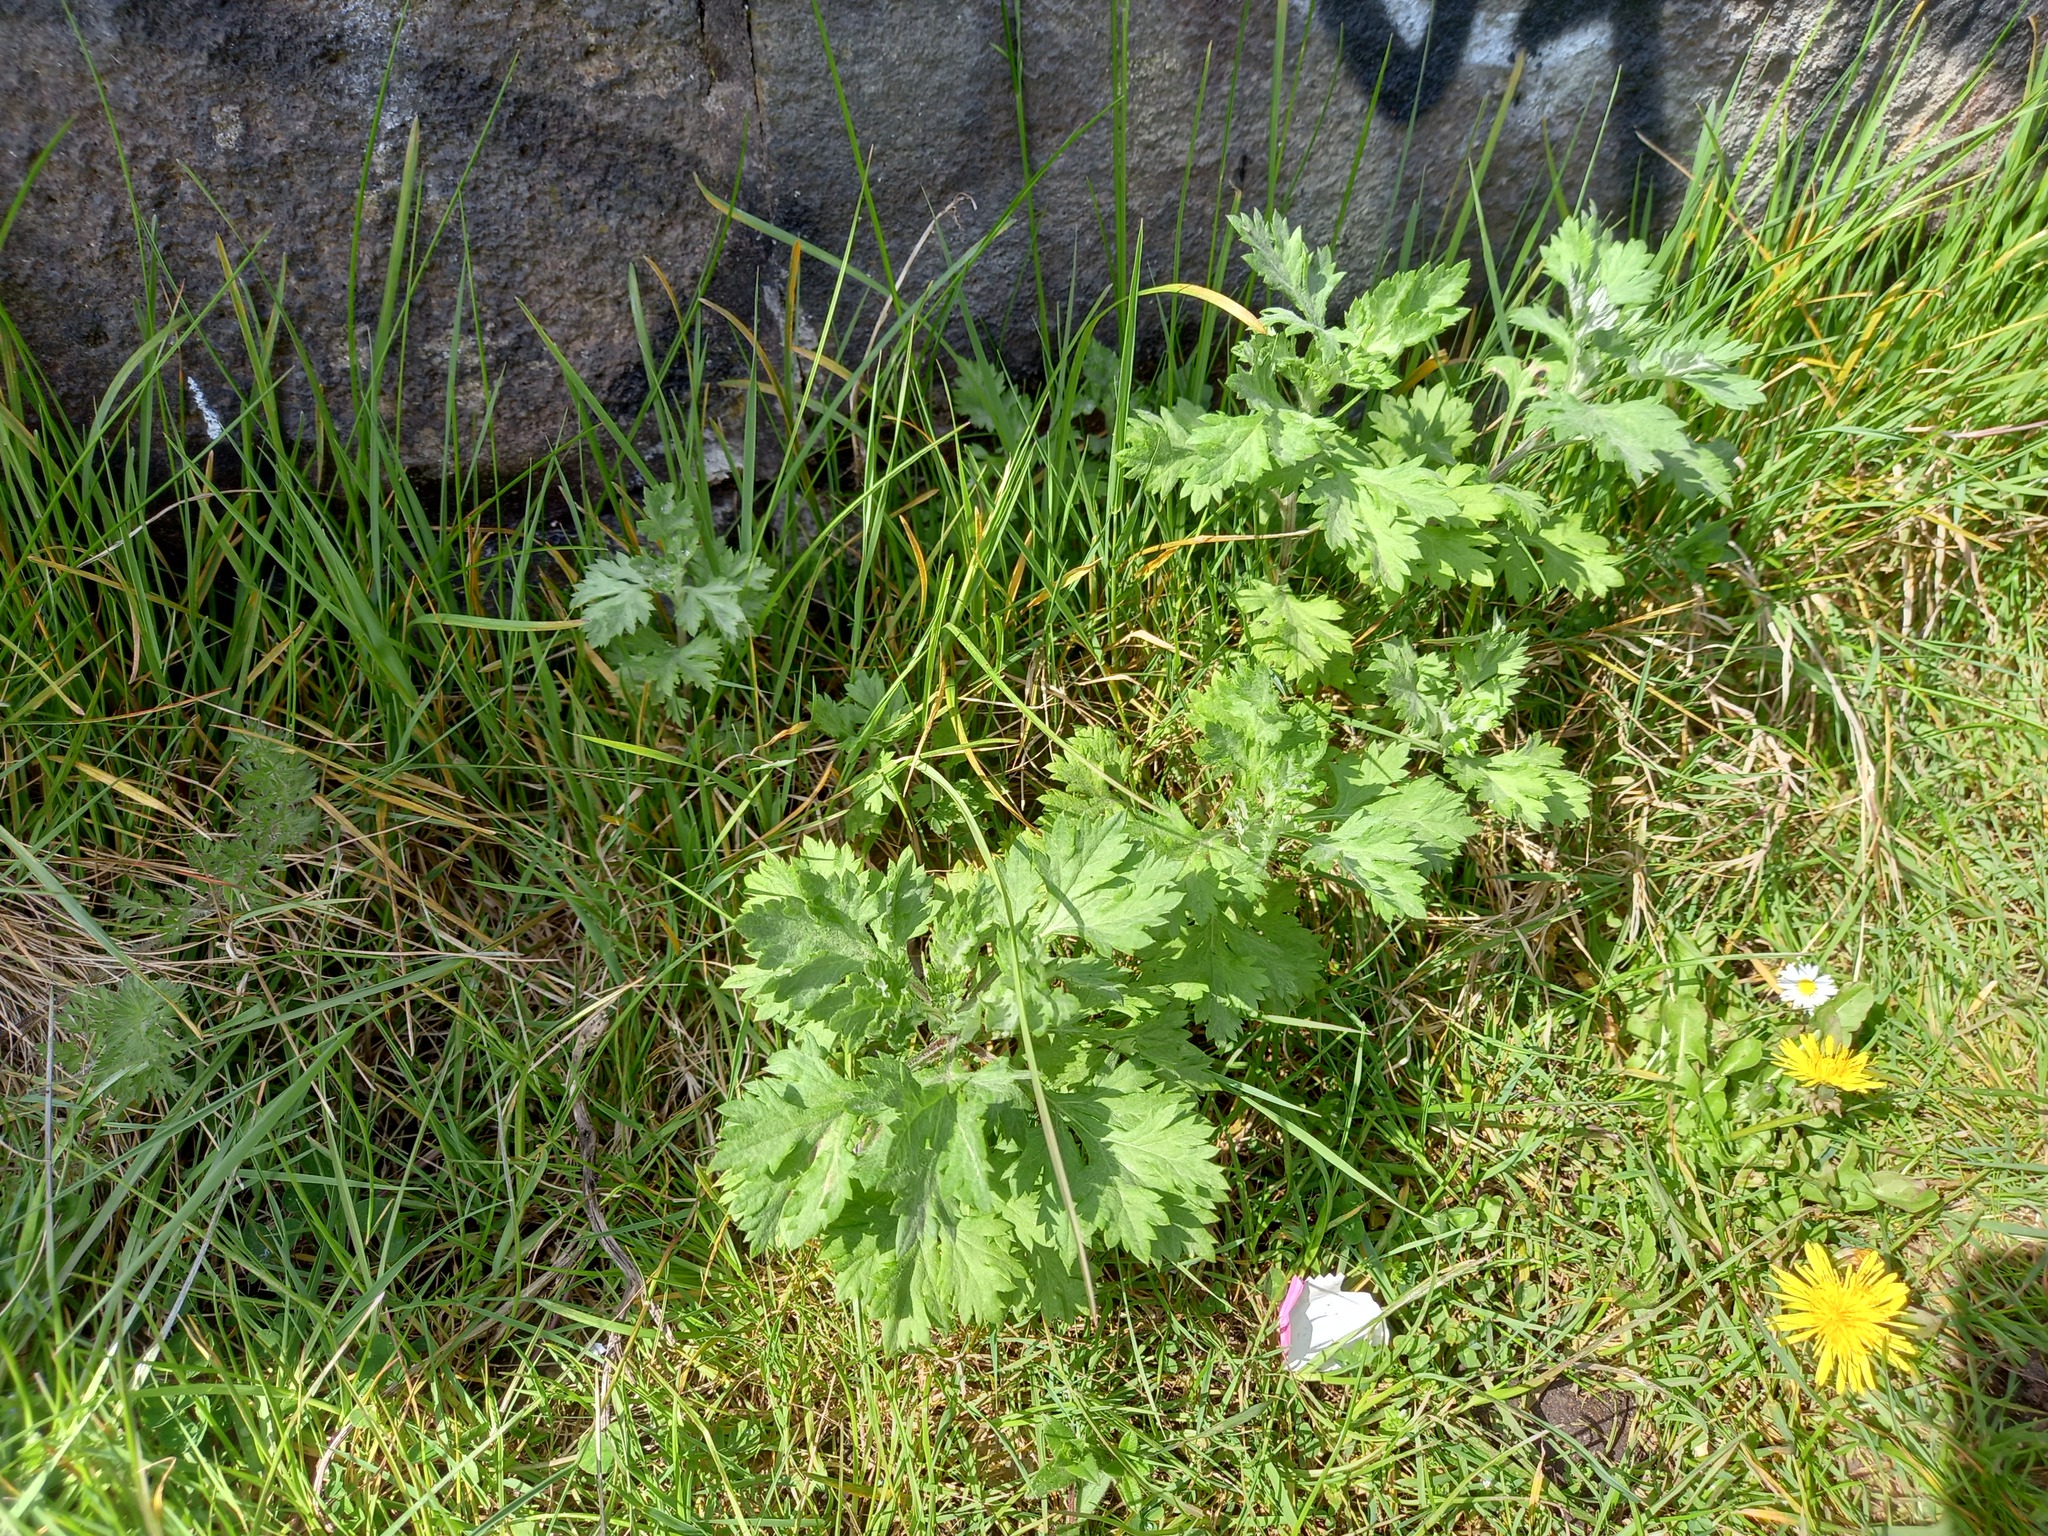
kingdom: Plantae
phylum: Tracheophyta
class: Magnoliopsida
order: Asterales
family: Asteraceae
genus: Artemisia
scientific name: Artemisia vulgaris
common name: Mugwort
